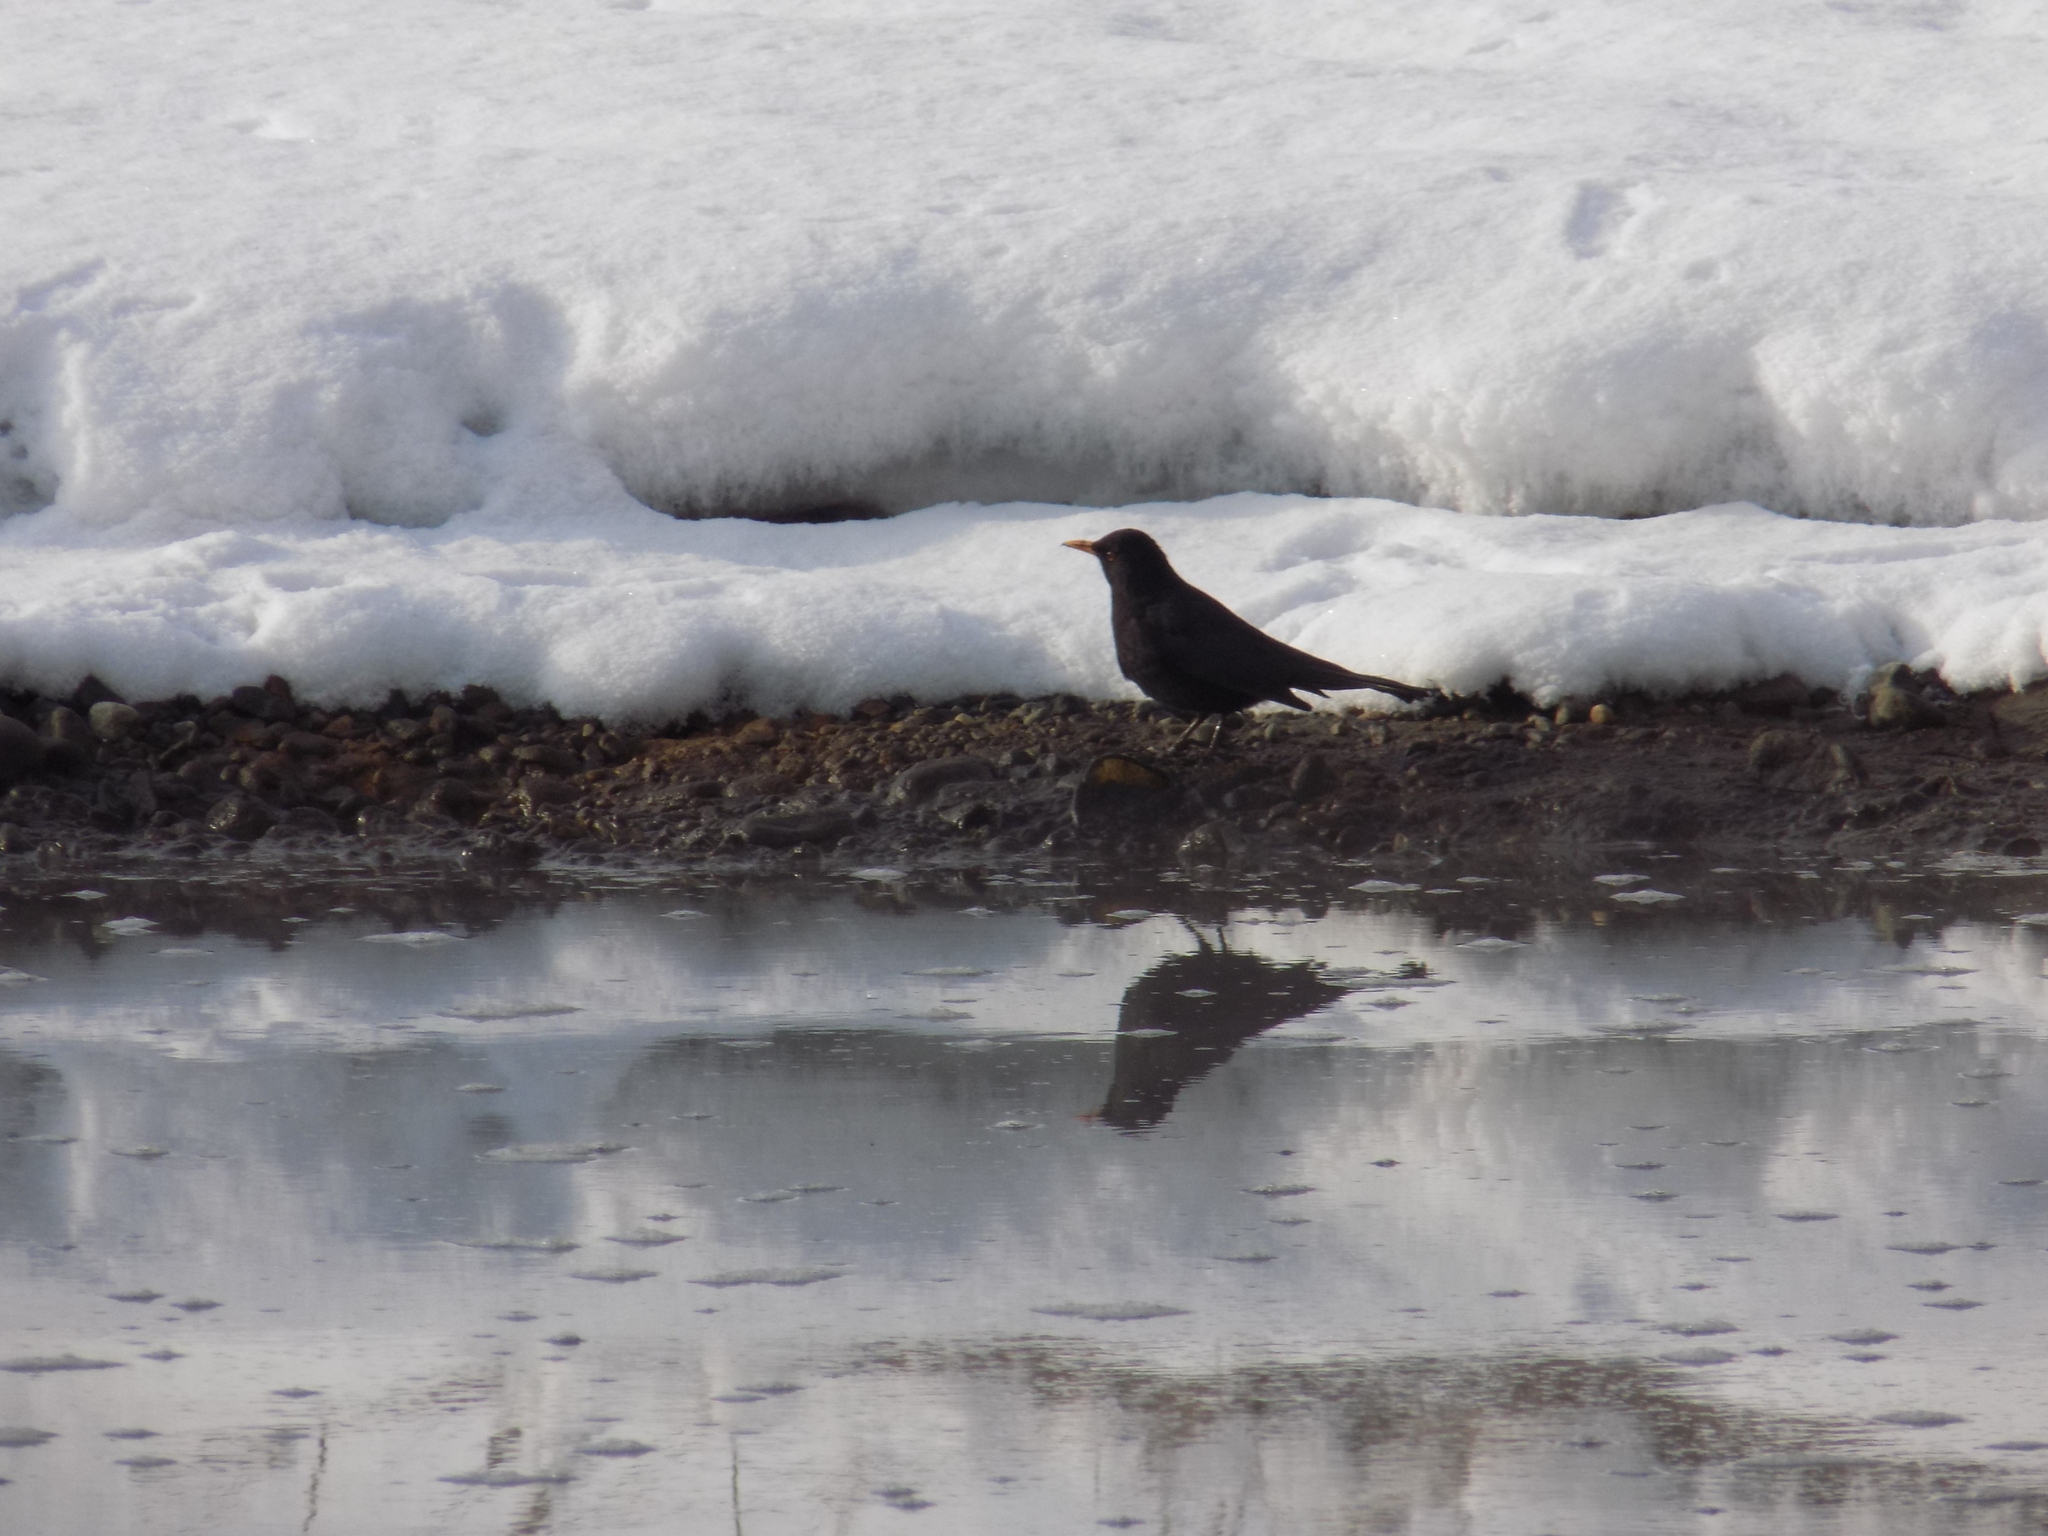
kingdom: Animalia
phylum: Chordata
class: Aves
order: Passeriformes
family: Turdidae
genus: Turdus
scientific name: Turdus merula
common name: Common blackbird
